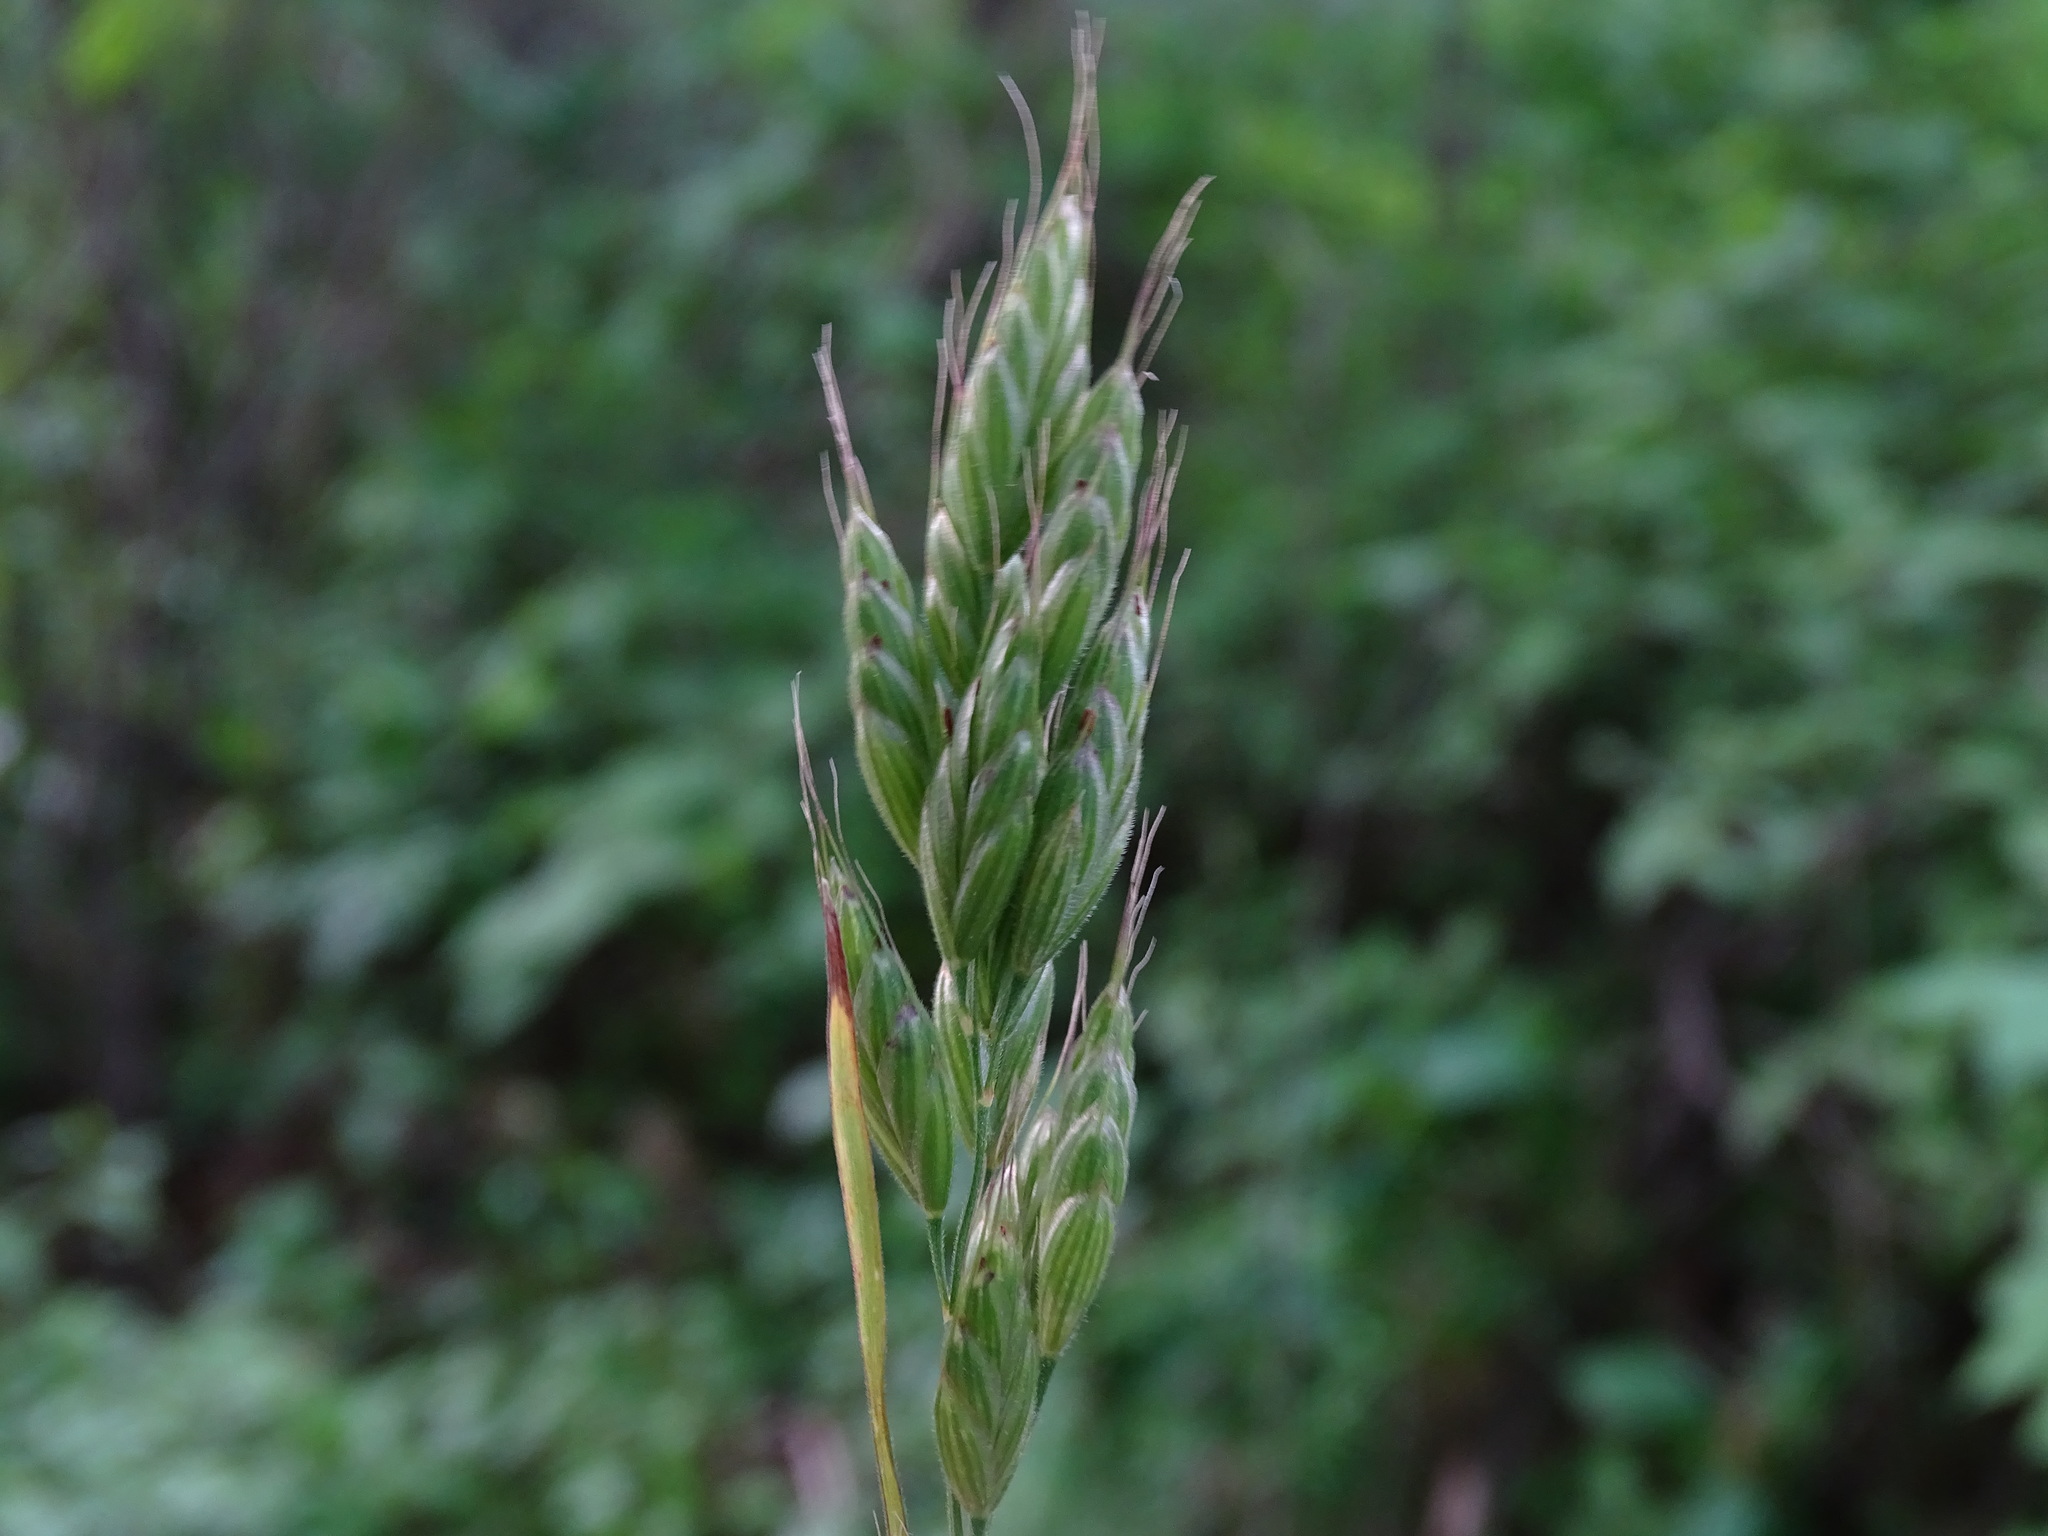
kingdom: Plantae
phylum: Tracheophyta
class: Liliopsida
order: Poales
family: Poaceae
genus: Bromus
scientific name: Bromus hordeaceus
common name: Soft brome
